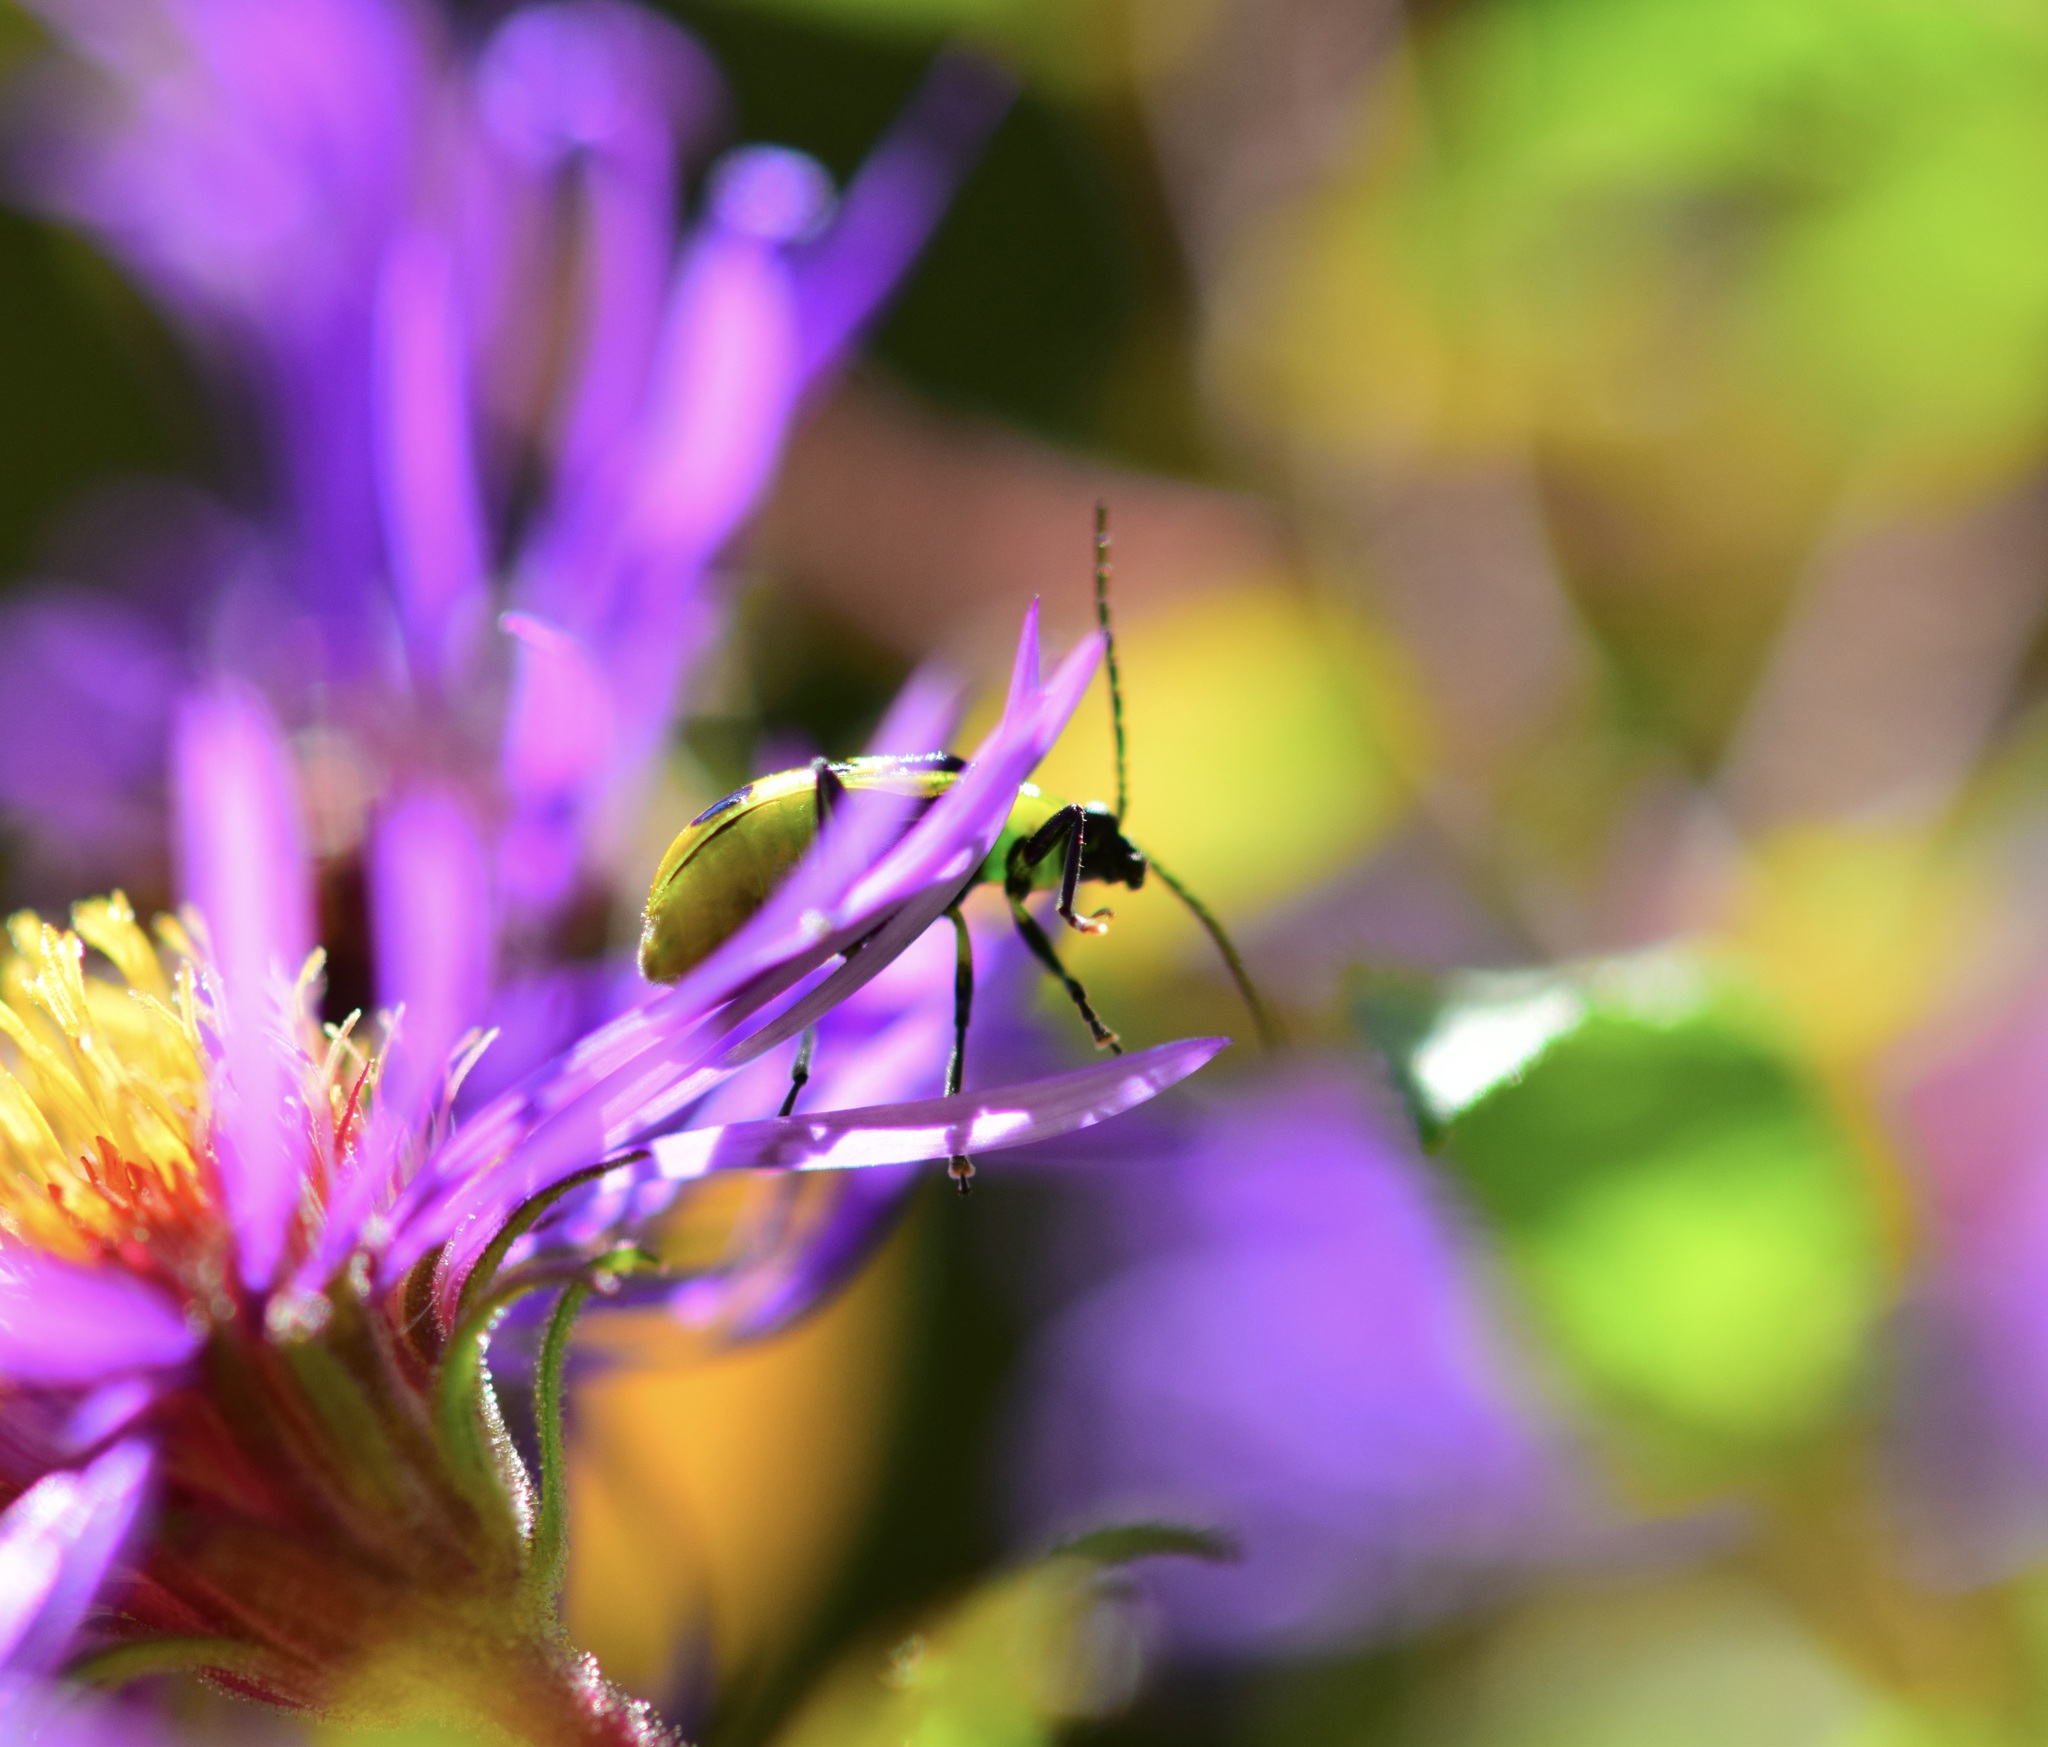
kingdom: Animalia
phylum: Arthropoda
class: Insecta
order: Coleoptera
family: Chrysomelidae
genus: Diabrotica
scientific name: Diabrotica undecimpunctata
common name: Spotted cucumber beetle
